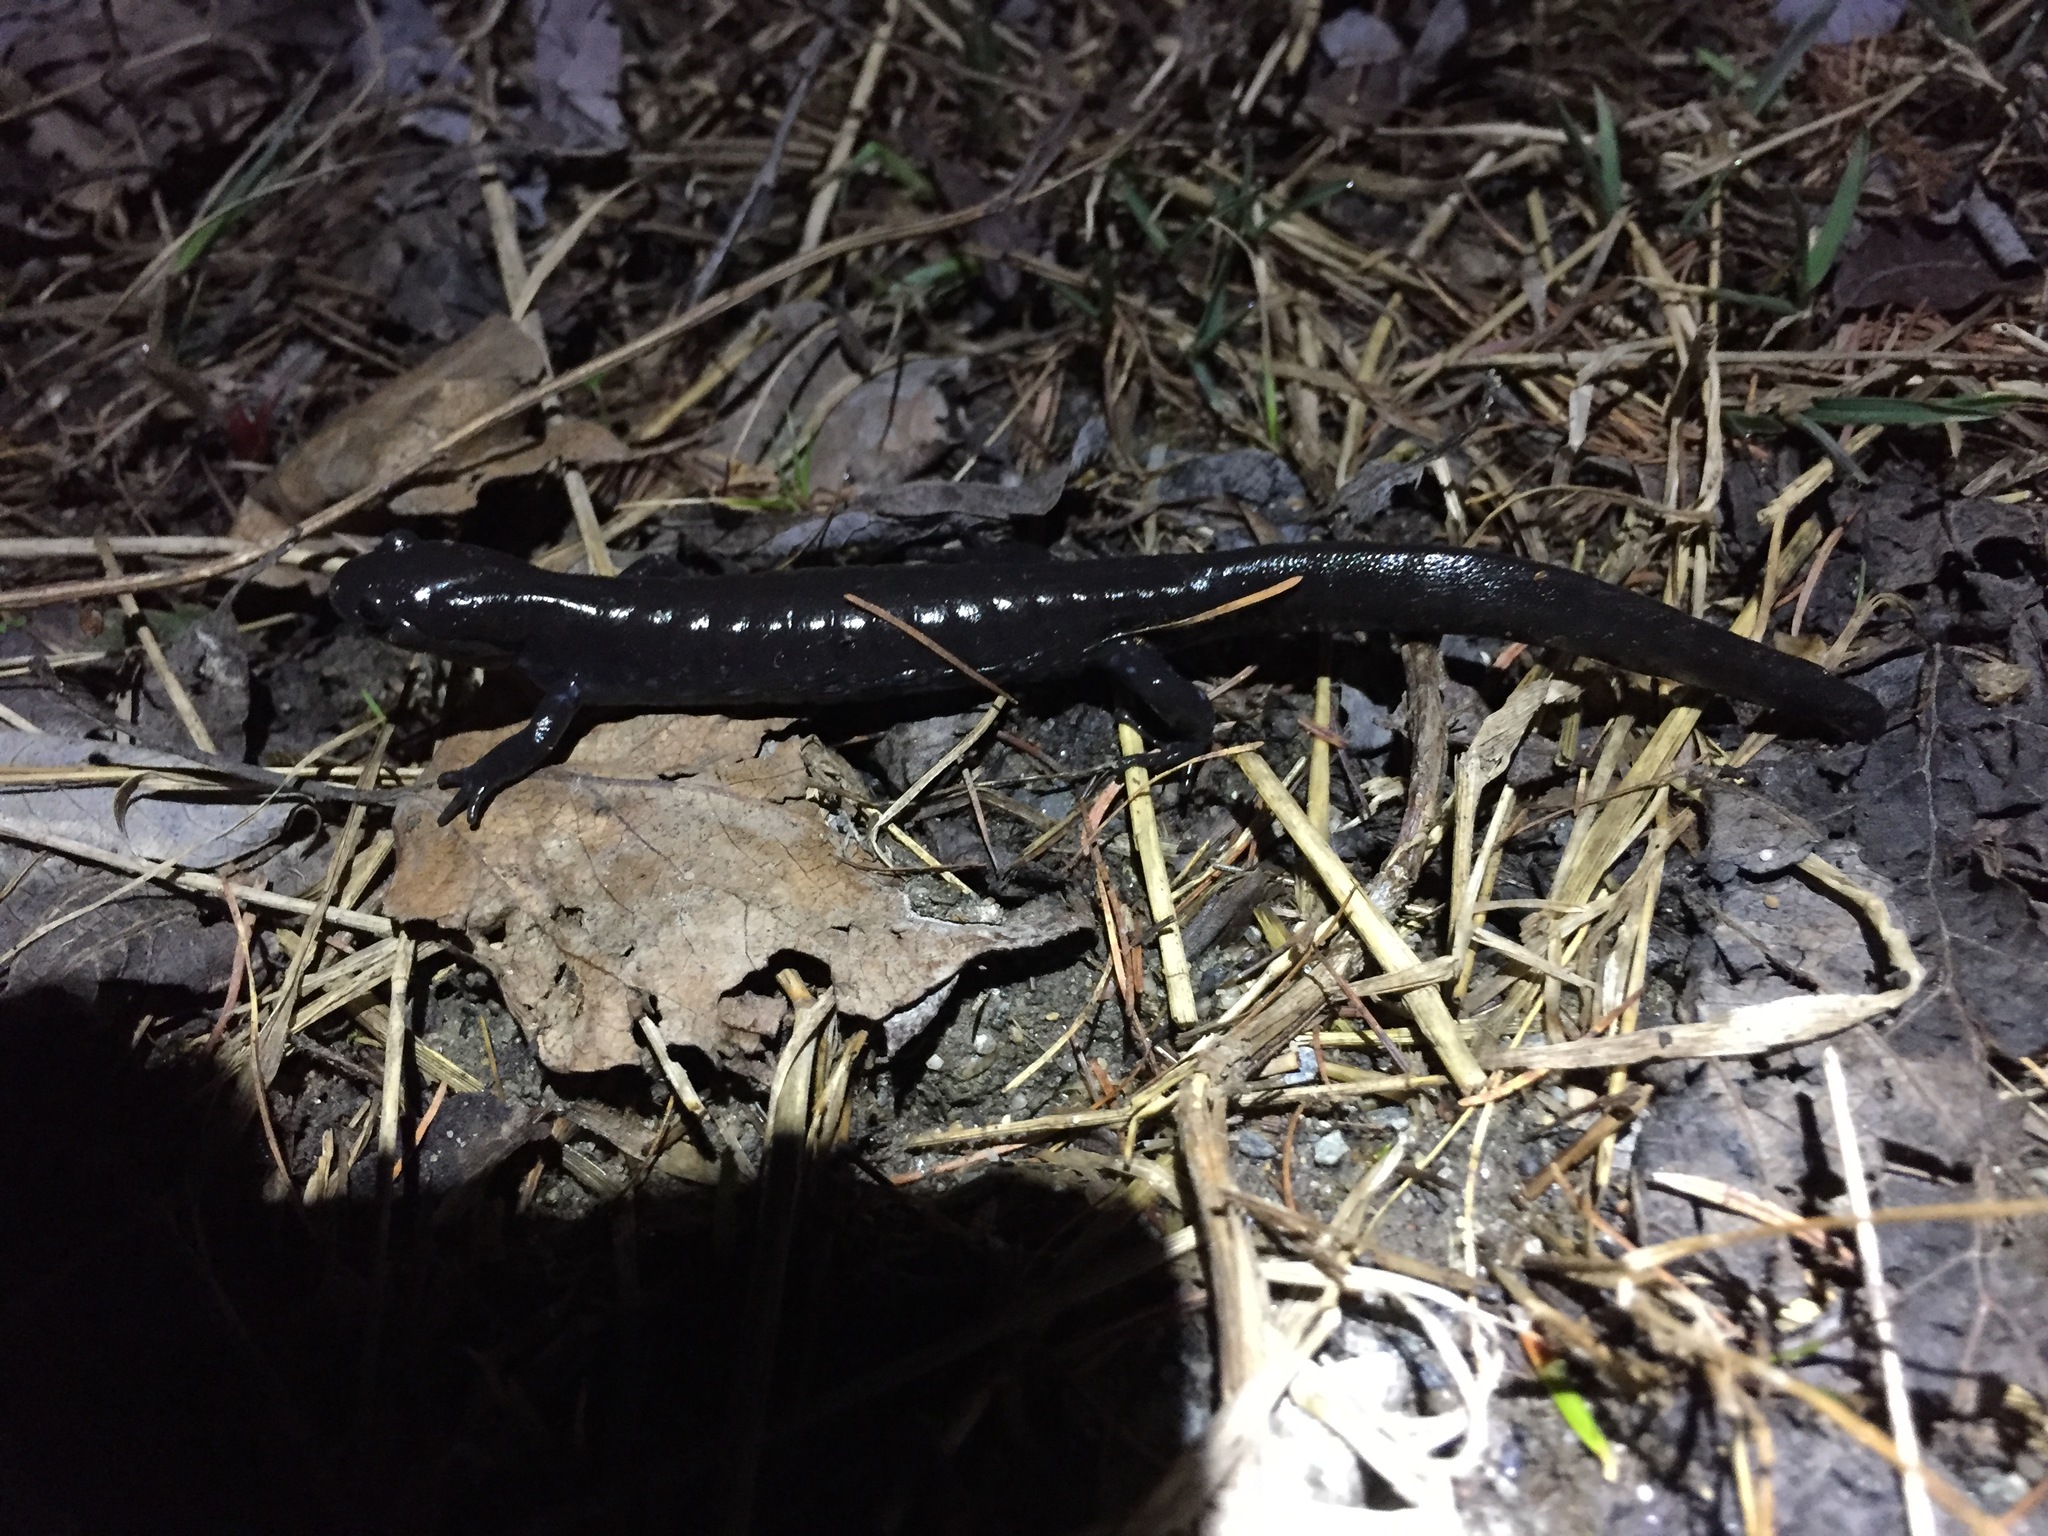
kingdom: Animalia
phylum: Chordata
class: Amphibia
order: Caudata
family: Ambystomatidae
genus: Ambystoma
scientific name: Ambystoma laterale
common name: Blue-spotted salamander
